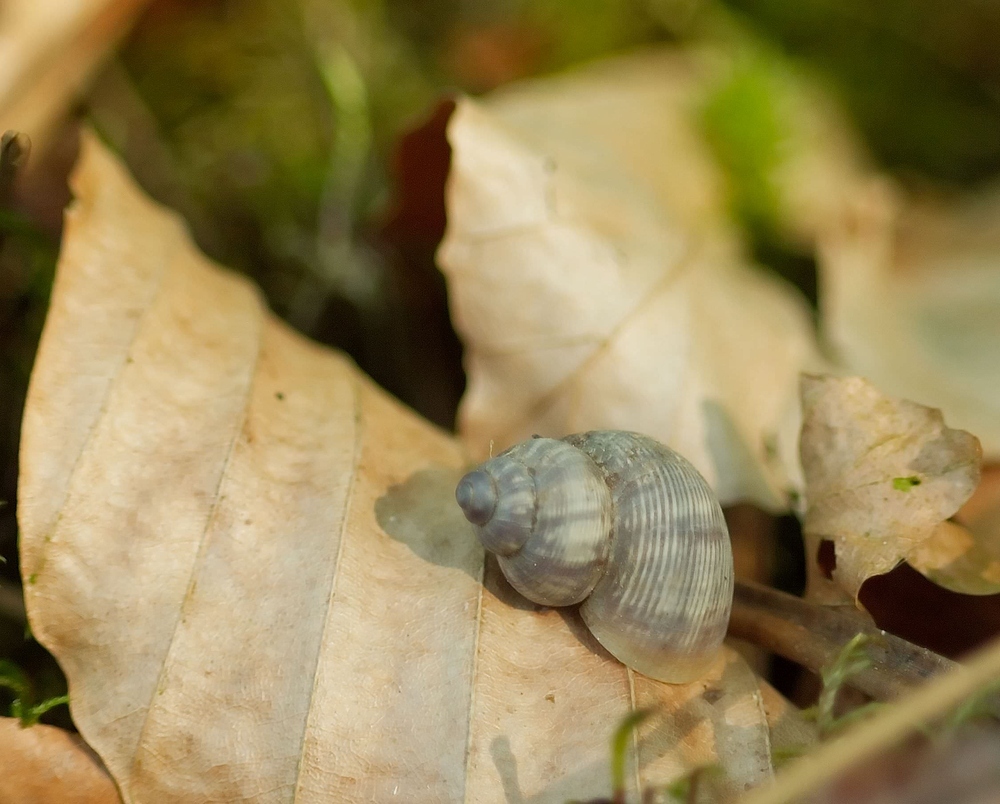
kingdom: Animalia
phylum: Mollusca
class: Gastropoda
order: Littorinimorpha
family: Pomatiidae
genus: Pomatias
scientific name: Pomatias elegans
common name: Red-mouthed snail
